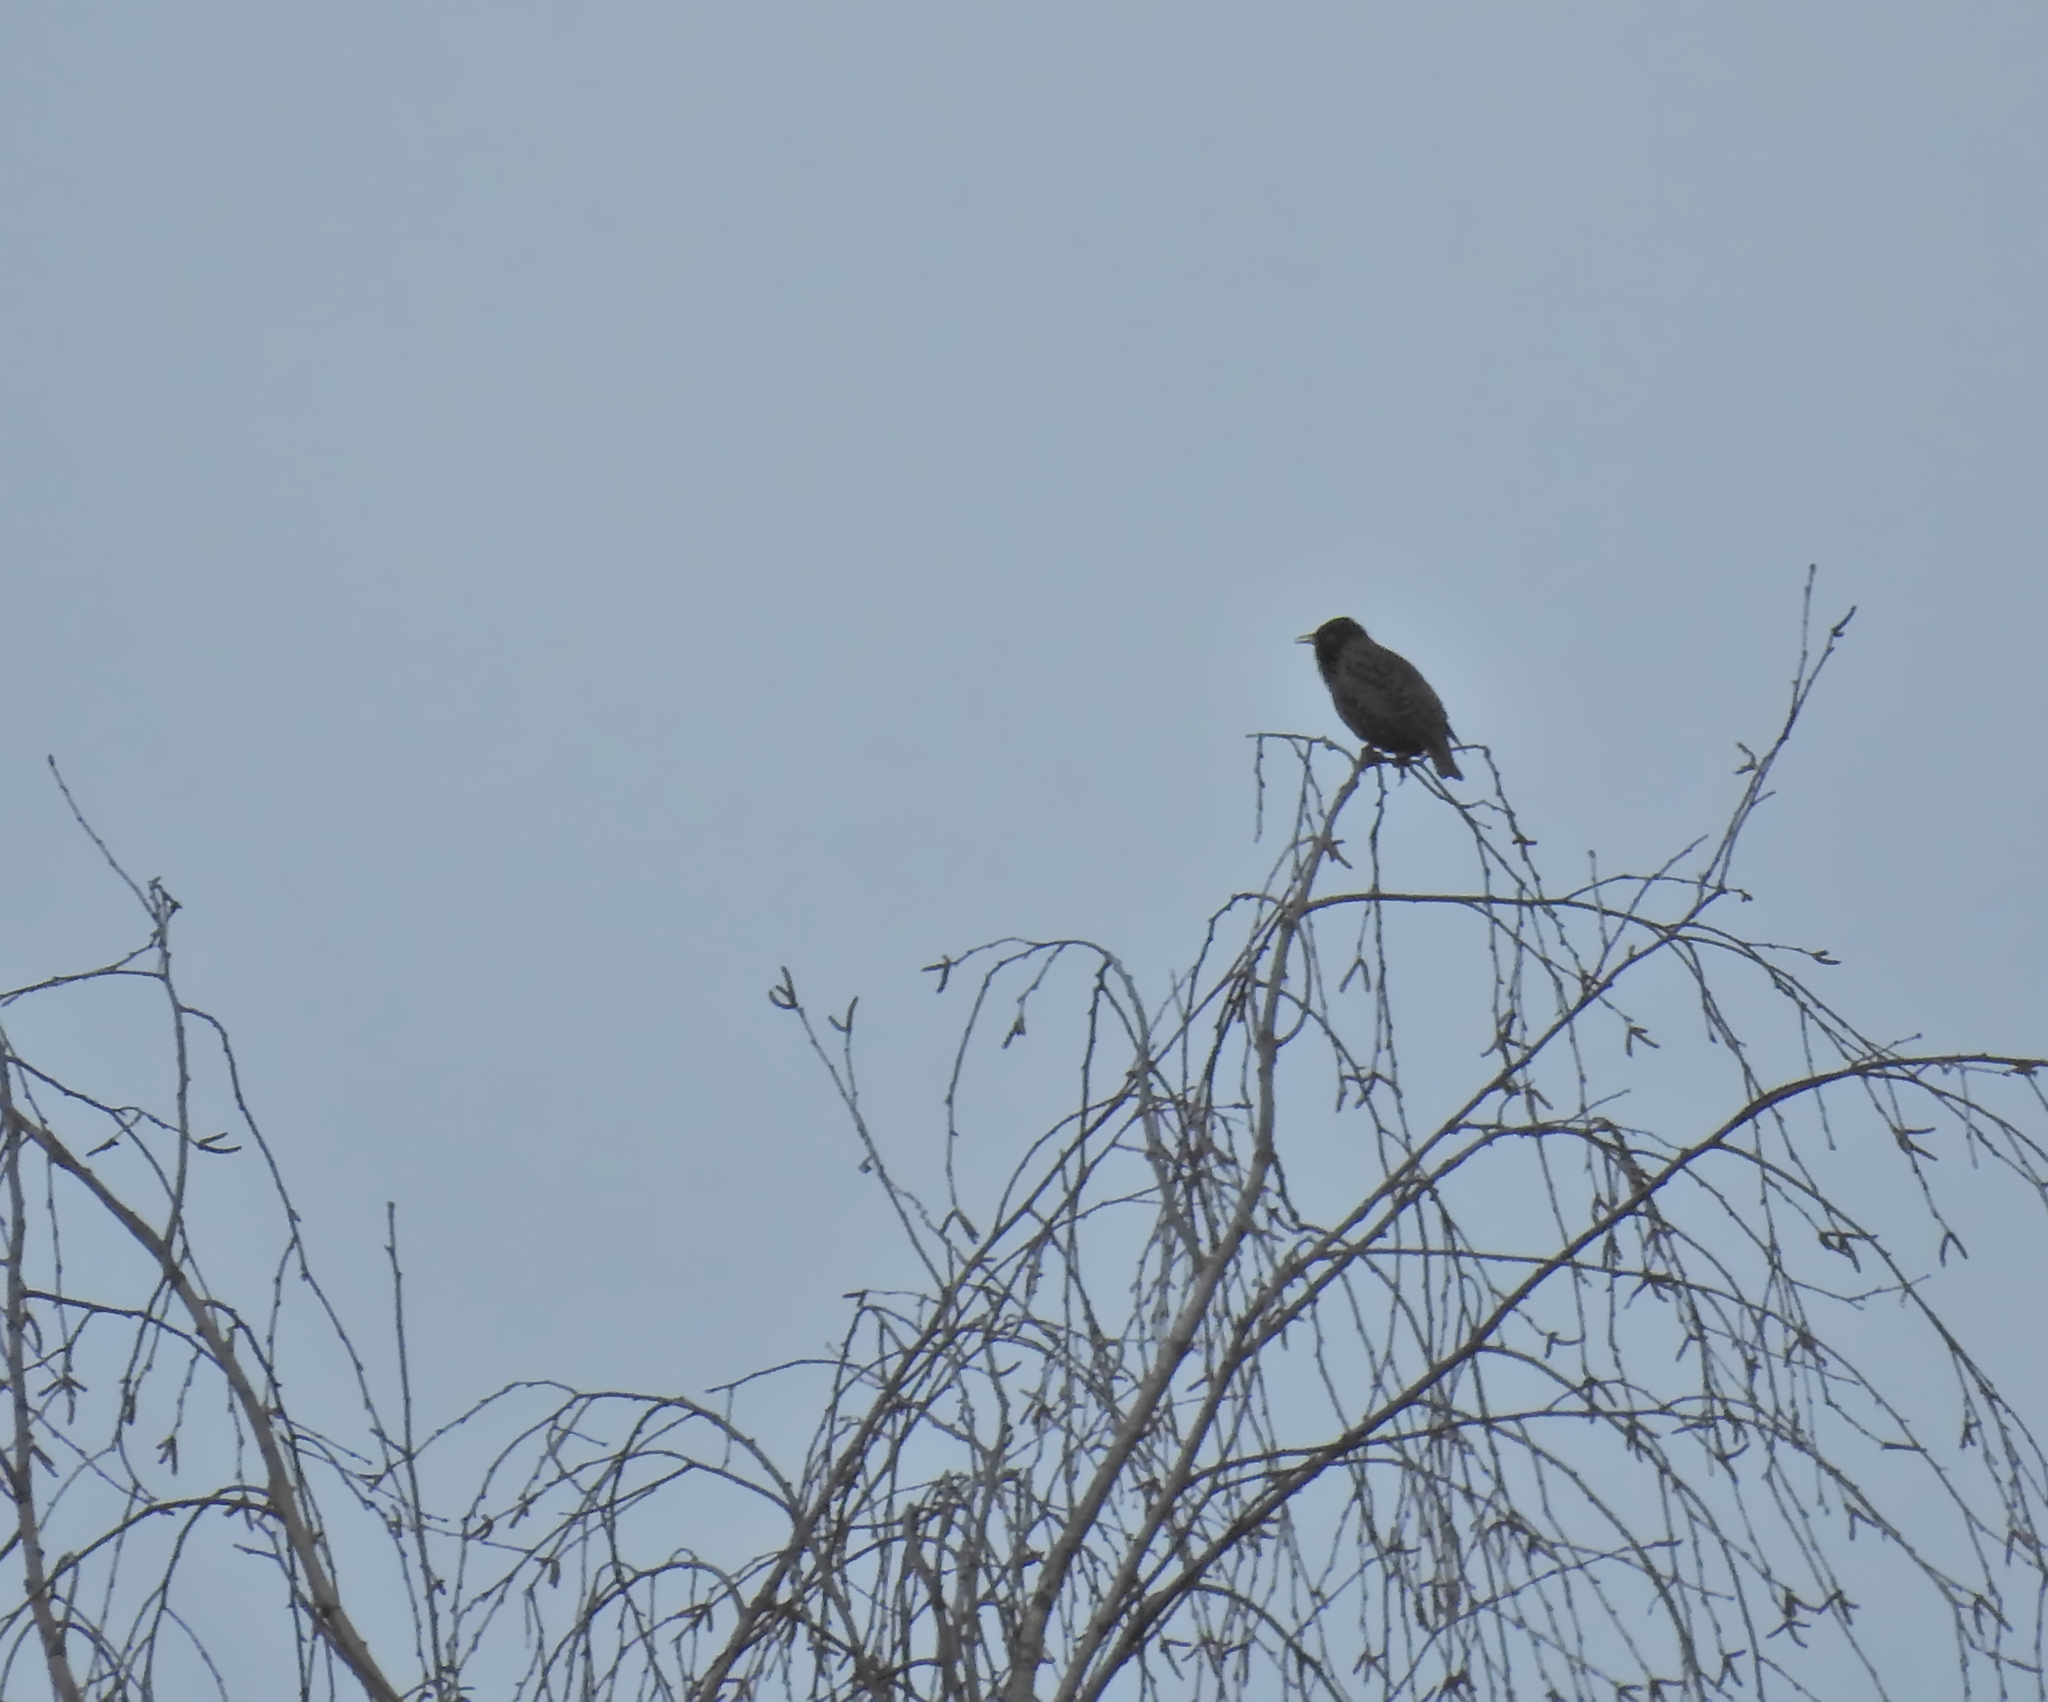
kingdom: Animalia
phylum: Chordata
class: Aves
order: Passeriformes
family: Sturnidae
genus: Sturnus
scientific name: Sturnus vulgaris
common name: Common starling
